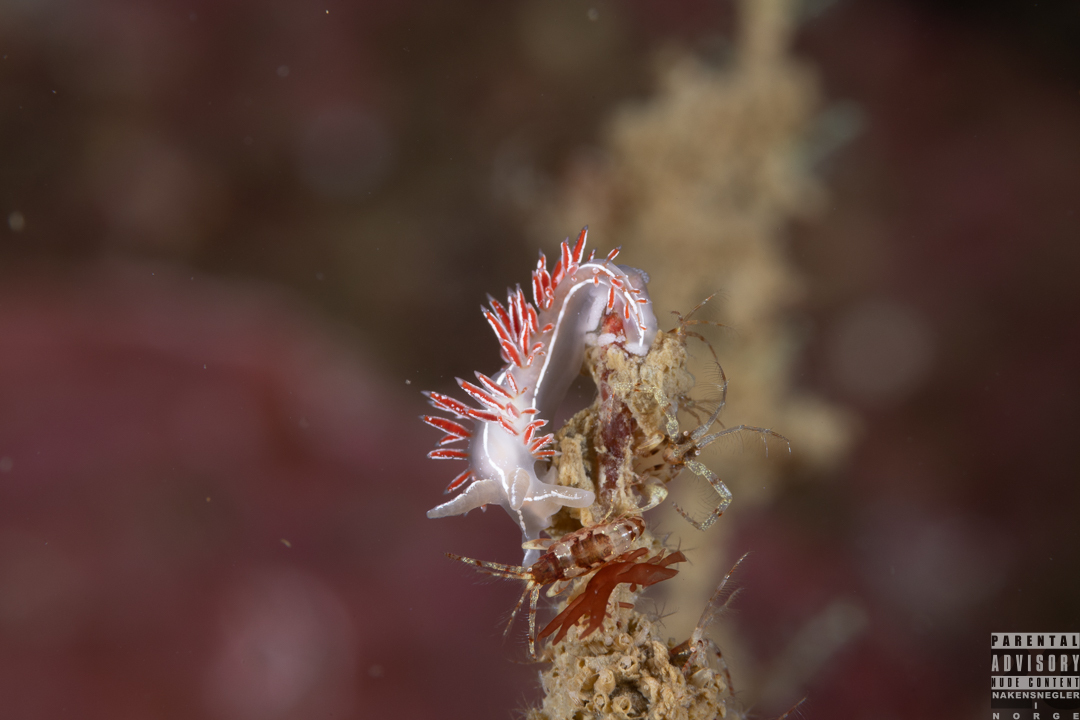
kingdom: Animalia
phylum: Mollusca
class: Gastropoda
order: Nudibranchia
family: Coryphellidae
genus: Coryphella
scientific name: Coryphella chriskaugei
